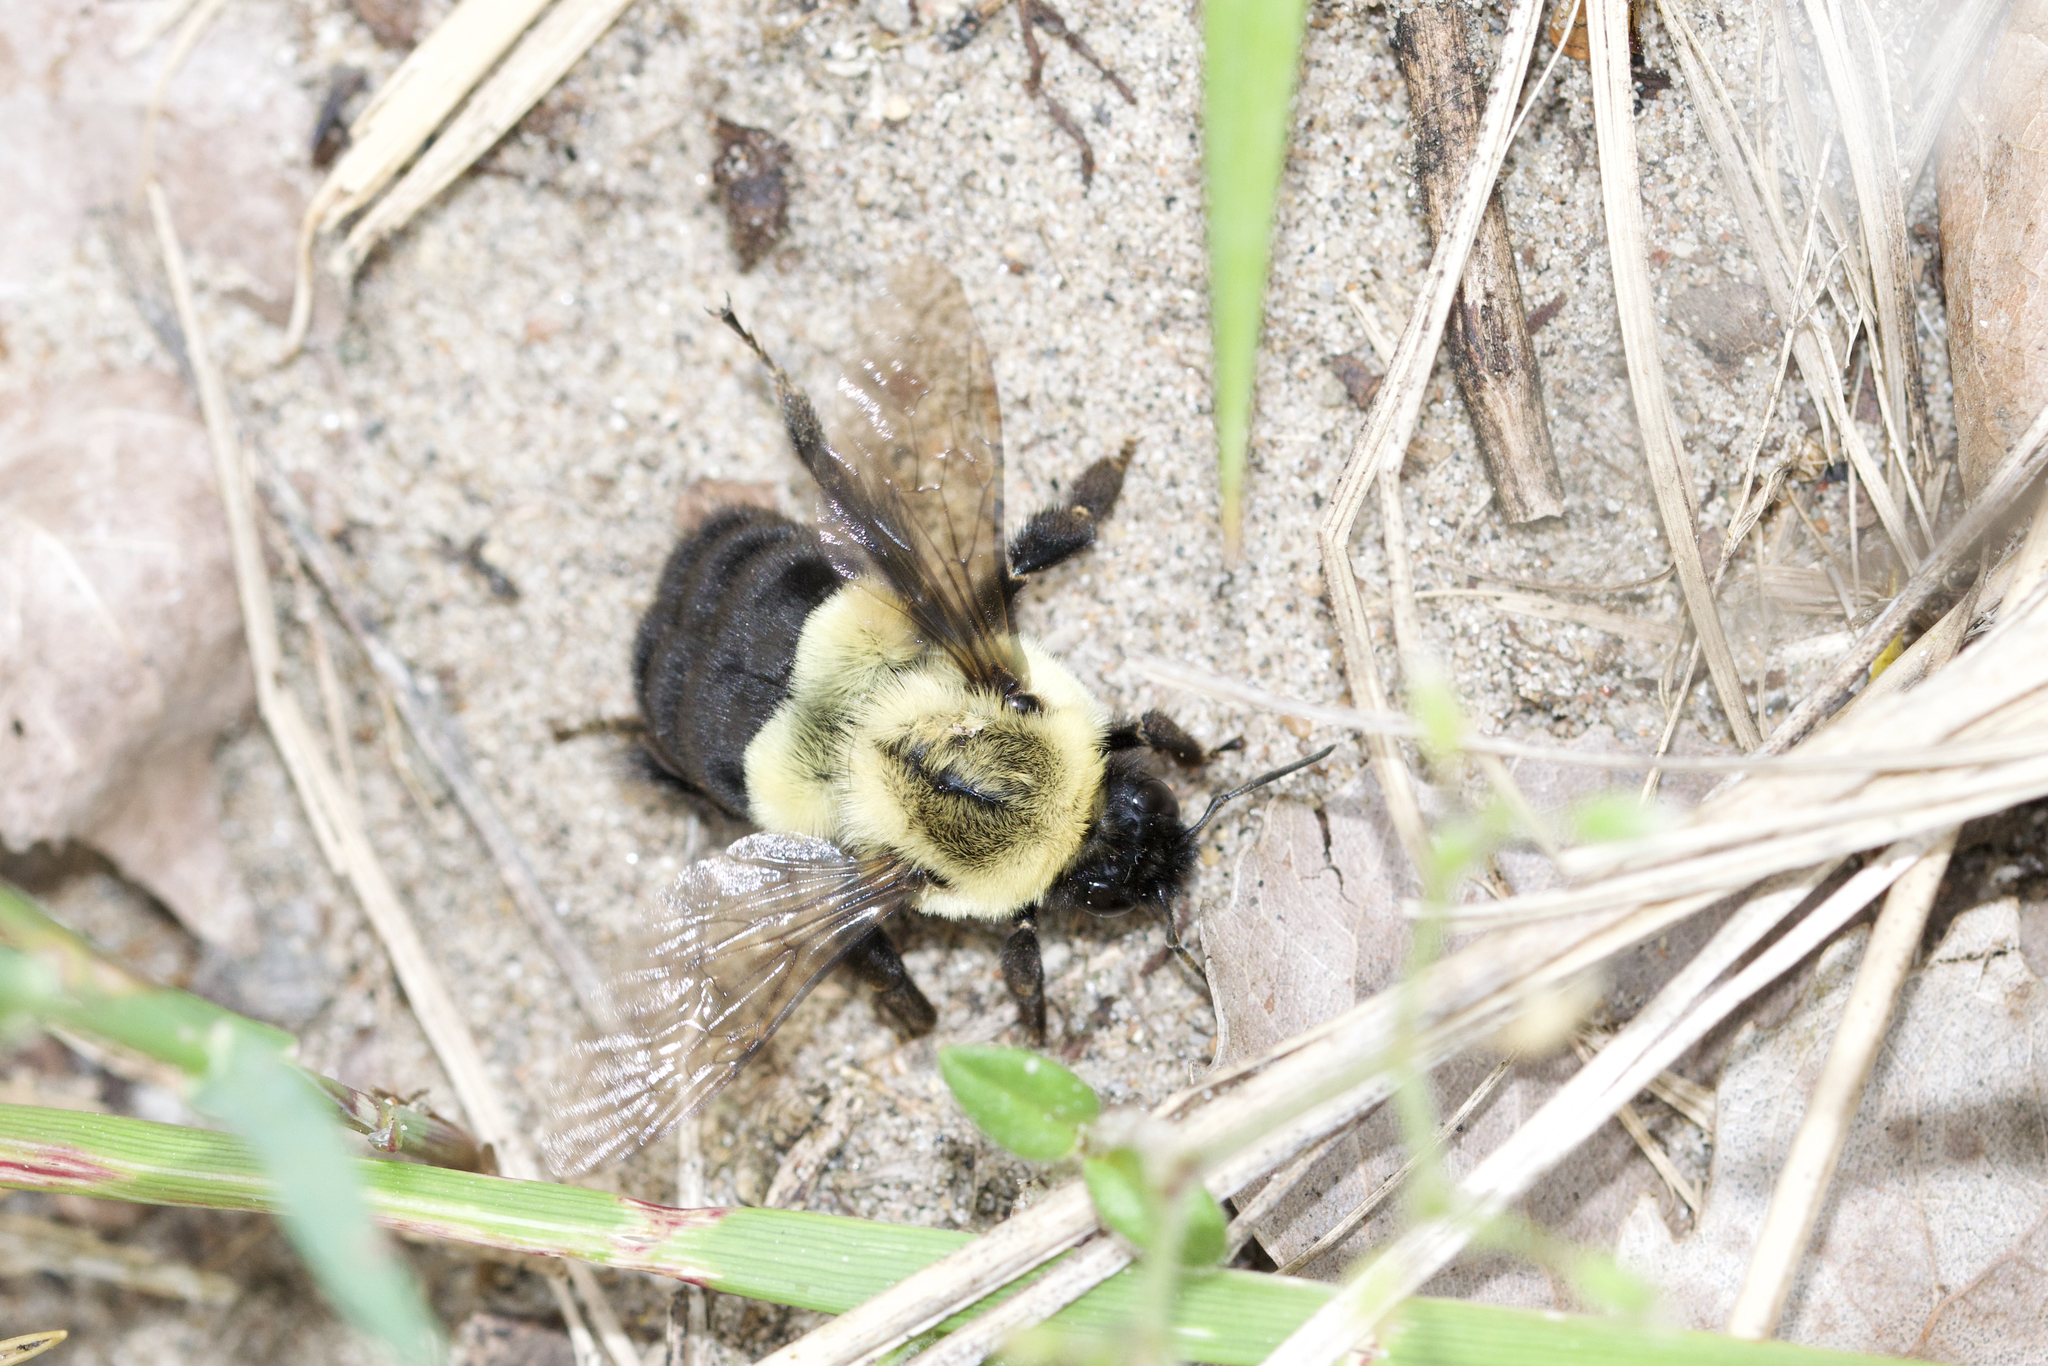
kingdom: Animalia
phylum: Arthropoda
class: Insecta
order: Hymenoptera
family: Apidae
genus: Bombus
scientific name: Bombus impatiens
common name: Common eastern bumble bee
